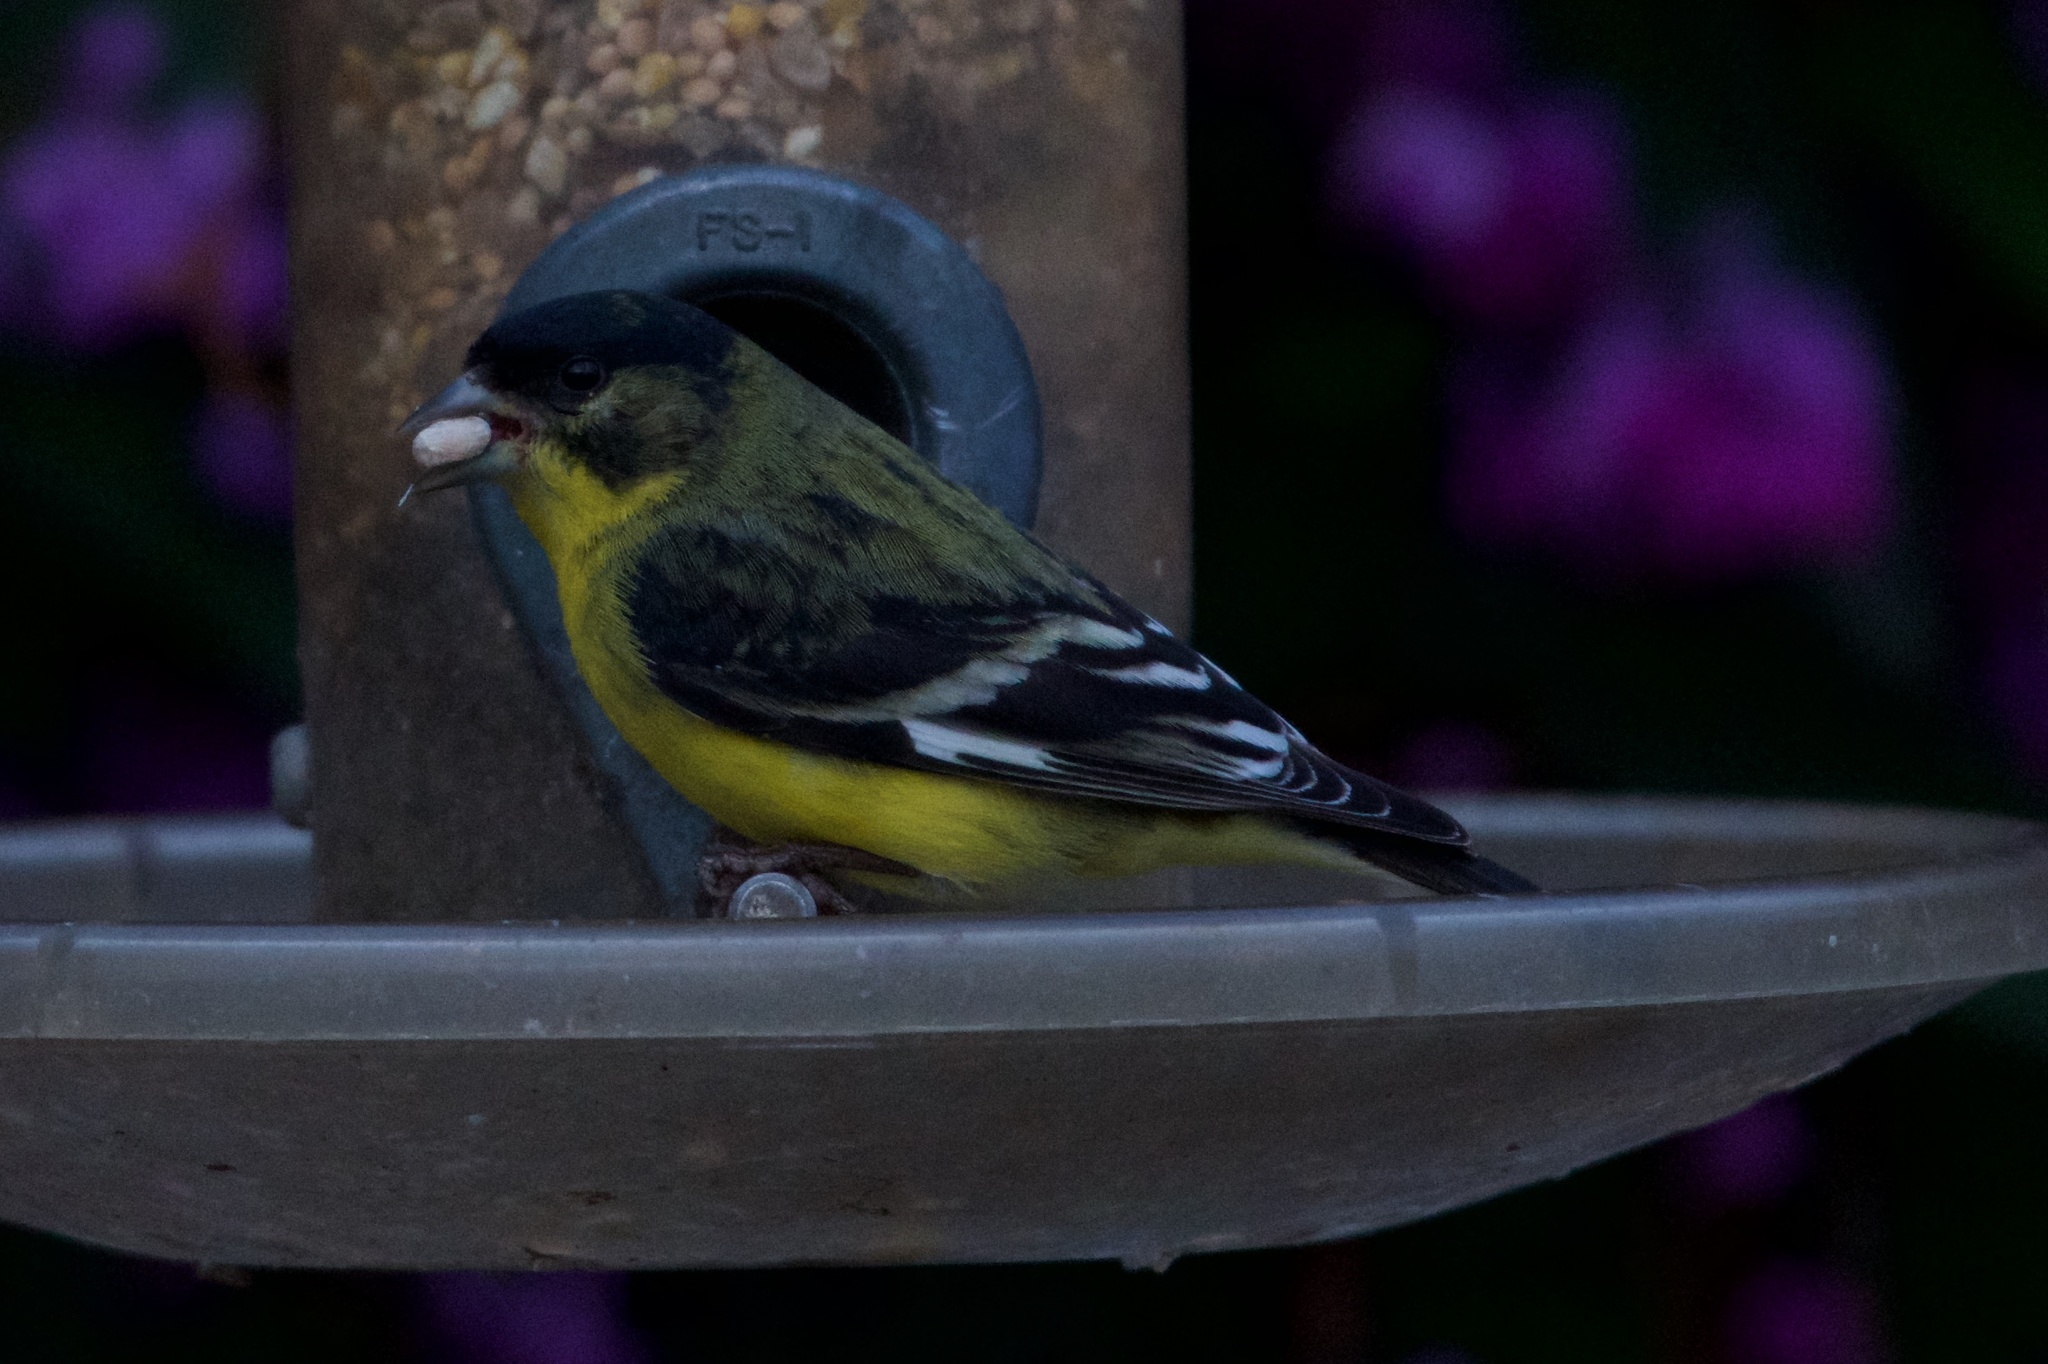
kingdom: Animalia
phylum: Chordata
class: Aves
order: Passeriformes
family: Fringillidae
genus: Spinus
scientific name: Spinus psaltria
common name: Lesser goldfinch
